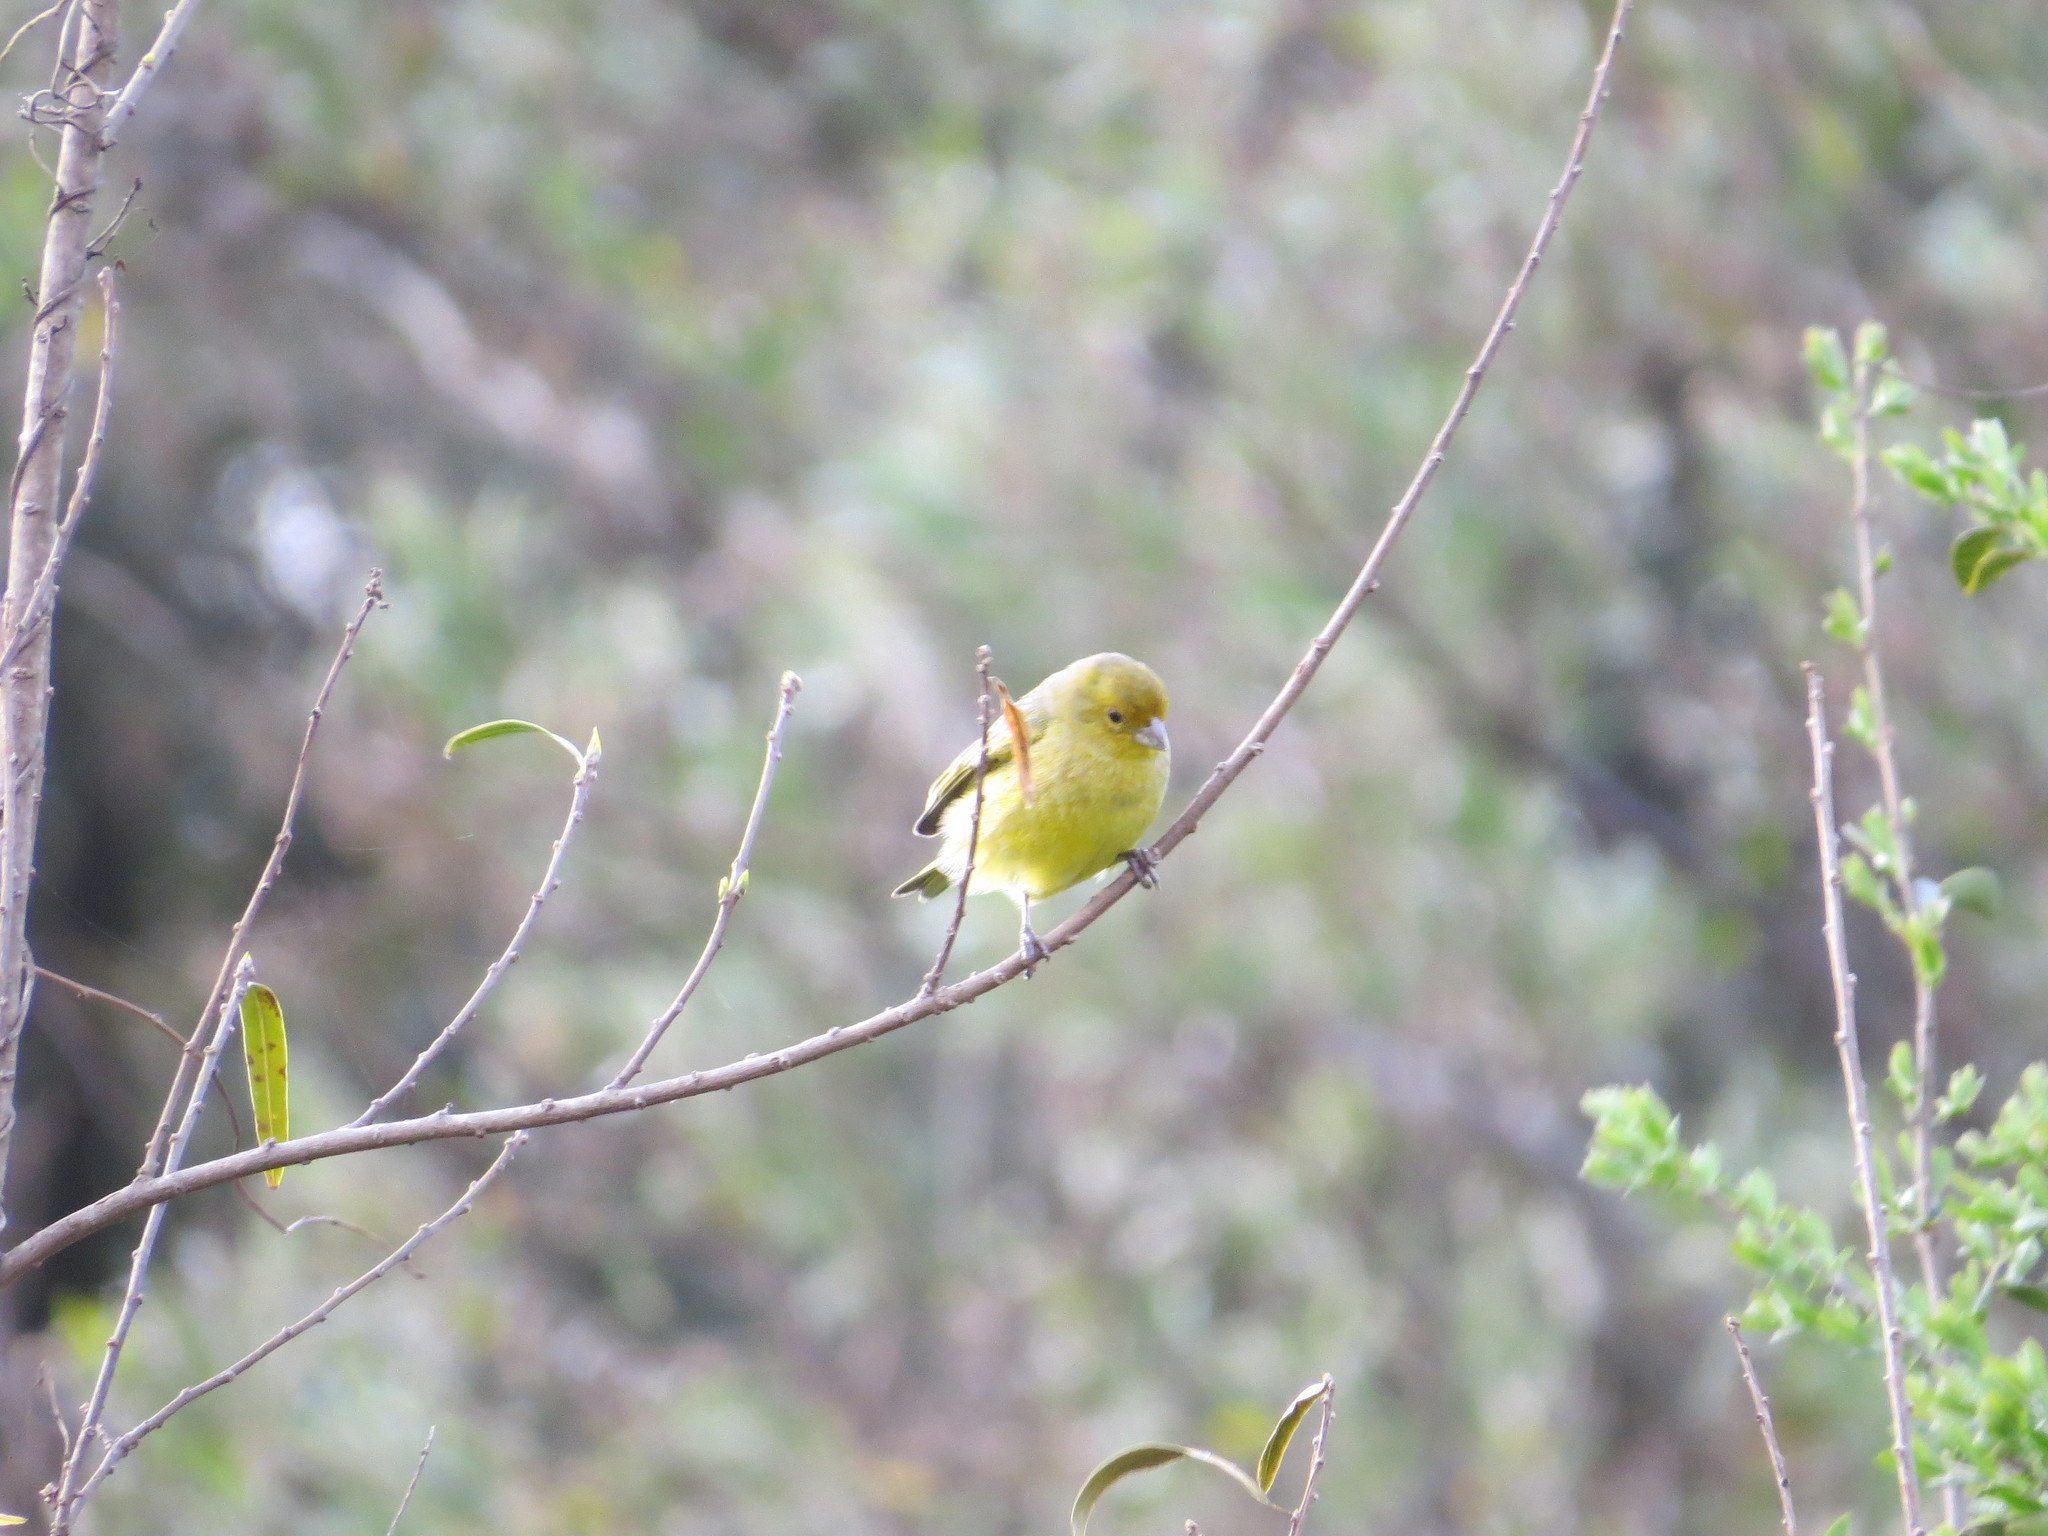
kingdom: Animalia
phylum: Chordata
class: Aves
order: Passeriformes
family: Thraupidae
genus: Sicalis
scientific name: Sicalis flaveola
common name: Saffron finch
